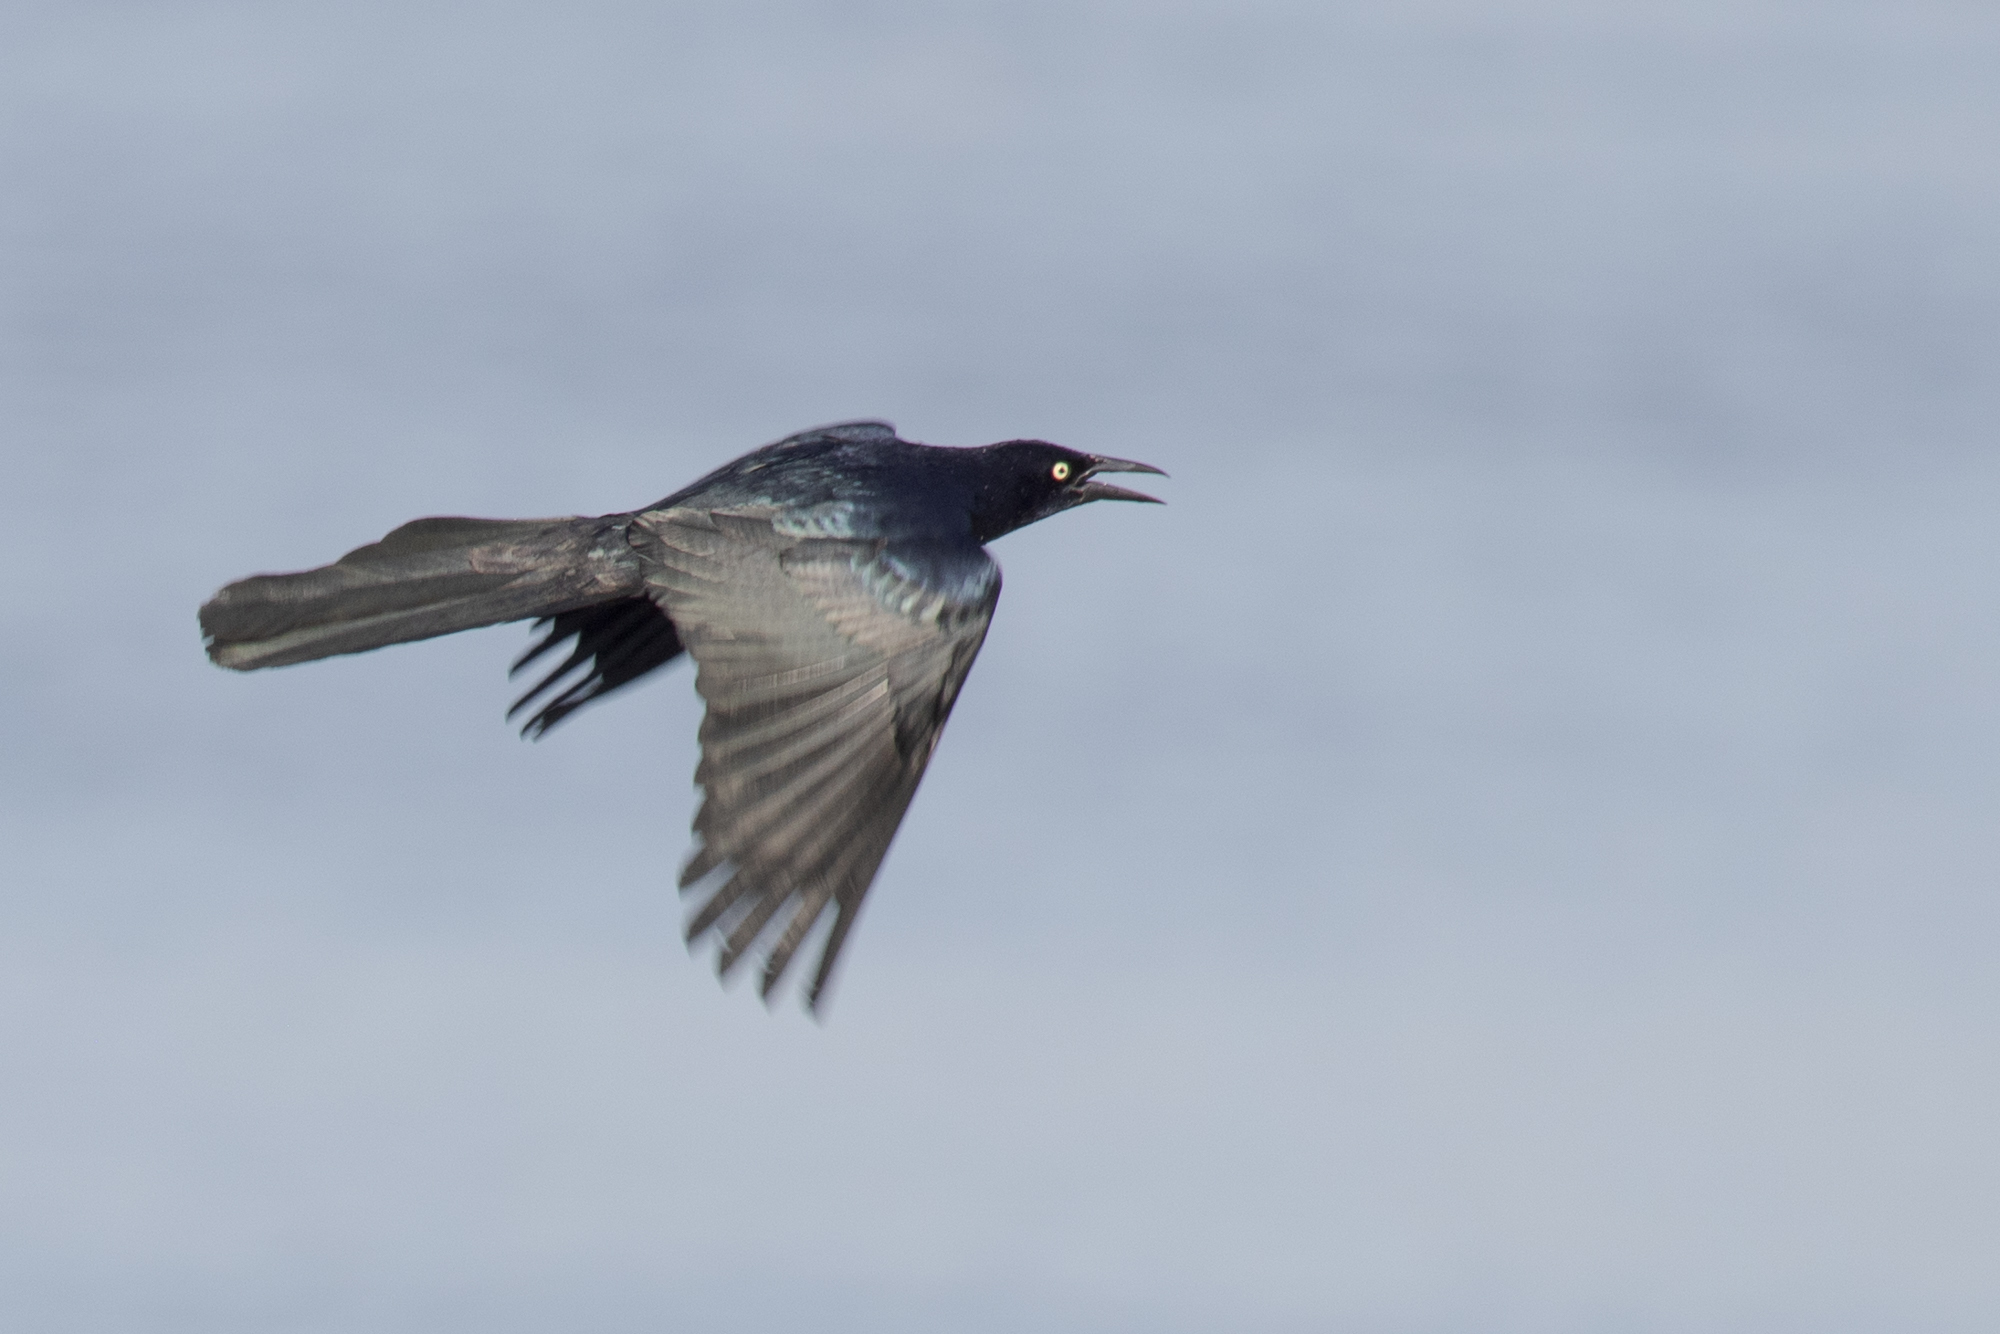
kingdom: Animalia
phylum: Chordata
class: Aves
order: Passeriformes
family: Icteridae
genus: Quiscalus
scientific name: Quiscalus mexicanus
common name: Great-tailed grackle
